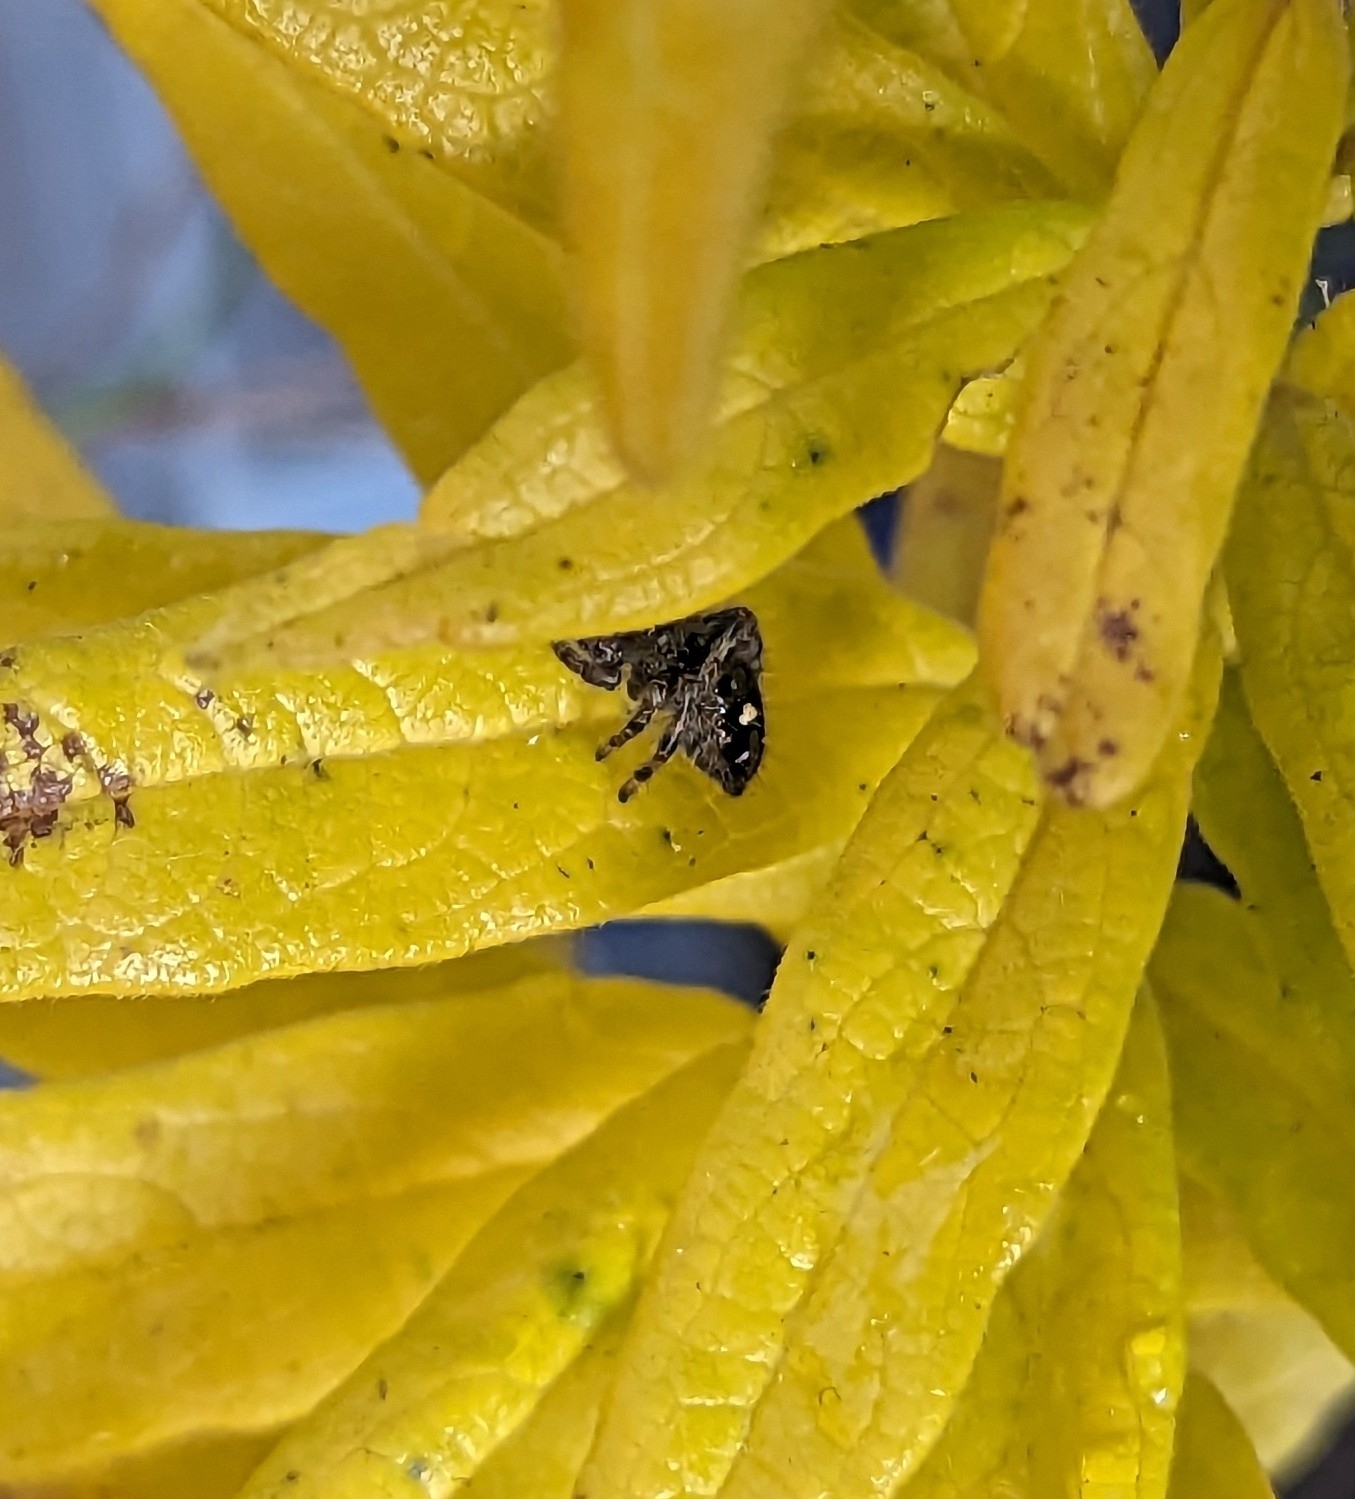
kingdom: Animalia
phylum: Arthropoda
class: Arachnida
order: Araneae
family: Salticidae
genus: Phidippus
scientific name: Phidippus audax
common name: Bold jumper
